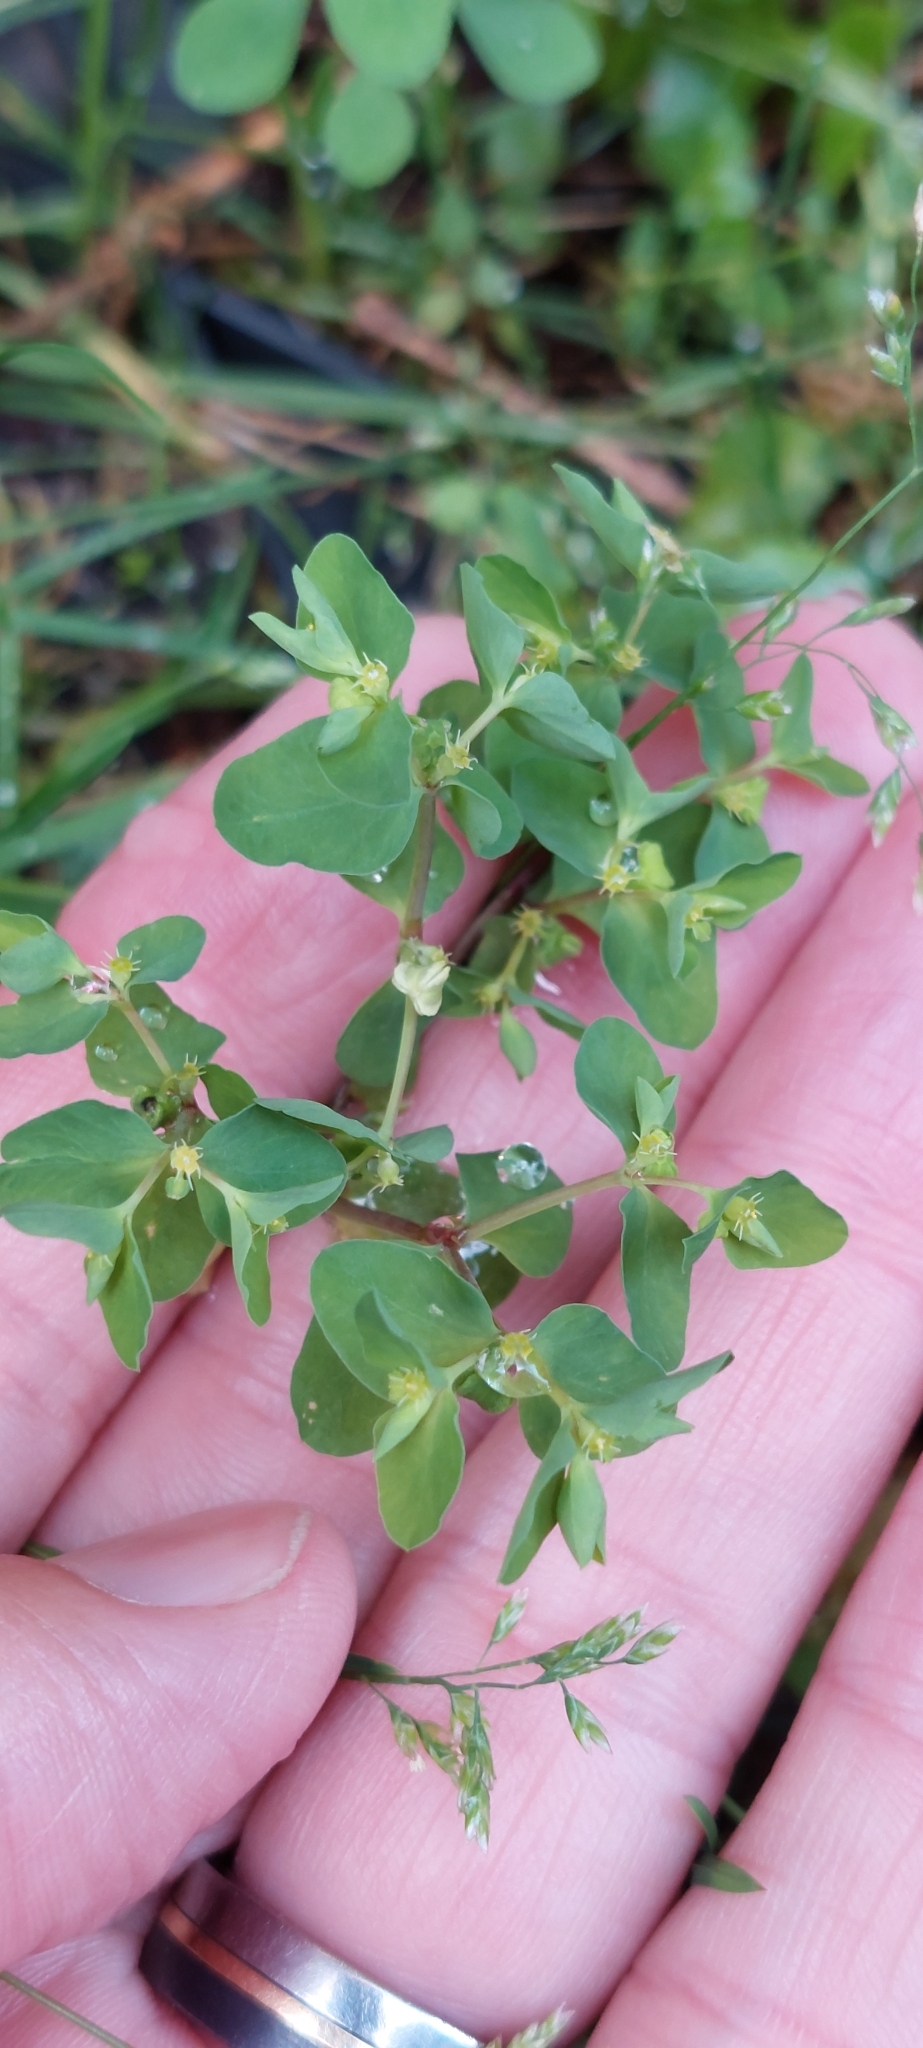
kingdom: Plantae
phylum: Tracheophyta
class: Magnoliopsida
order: Malpighiales
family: Euphorbiaceae
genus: Euphorbia
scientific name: Euphorbia peplus
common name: Petty spurge
